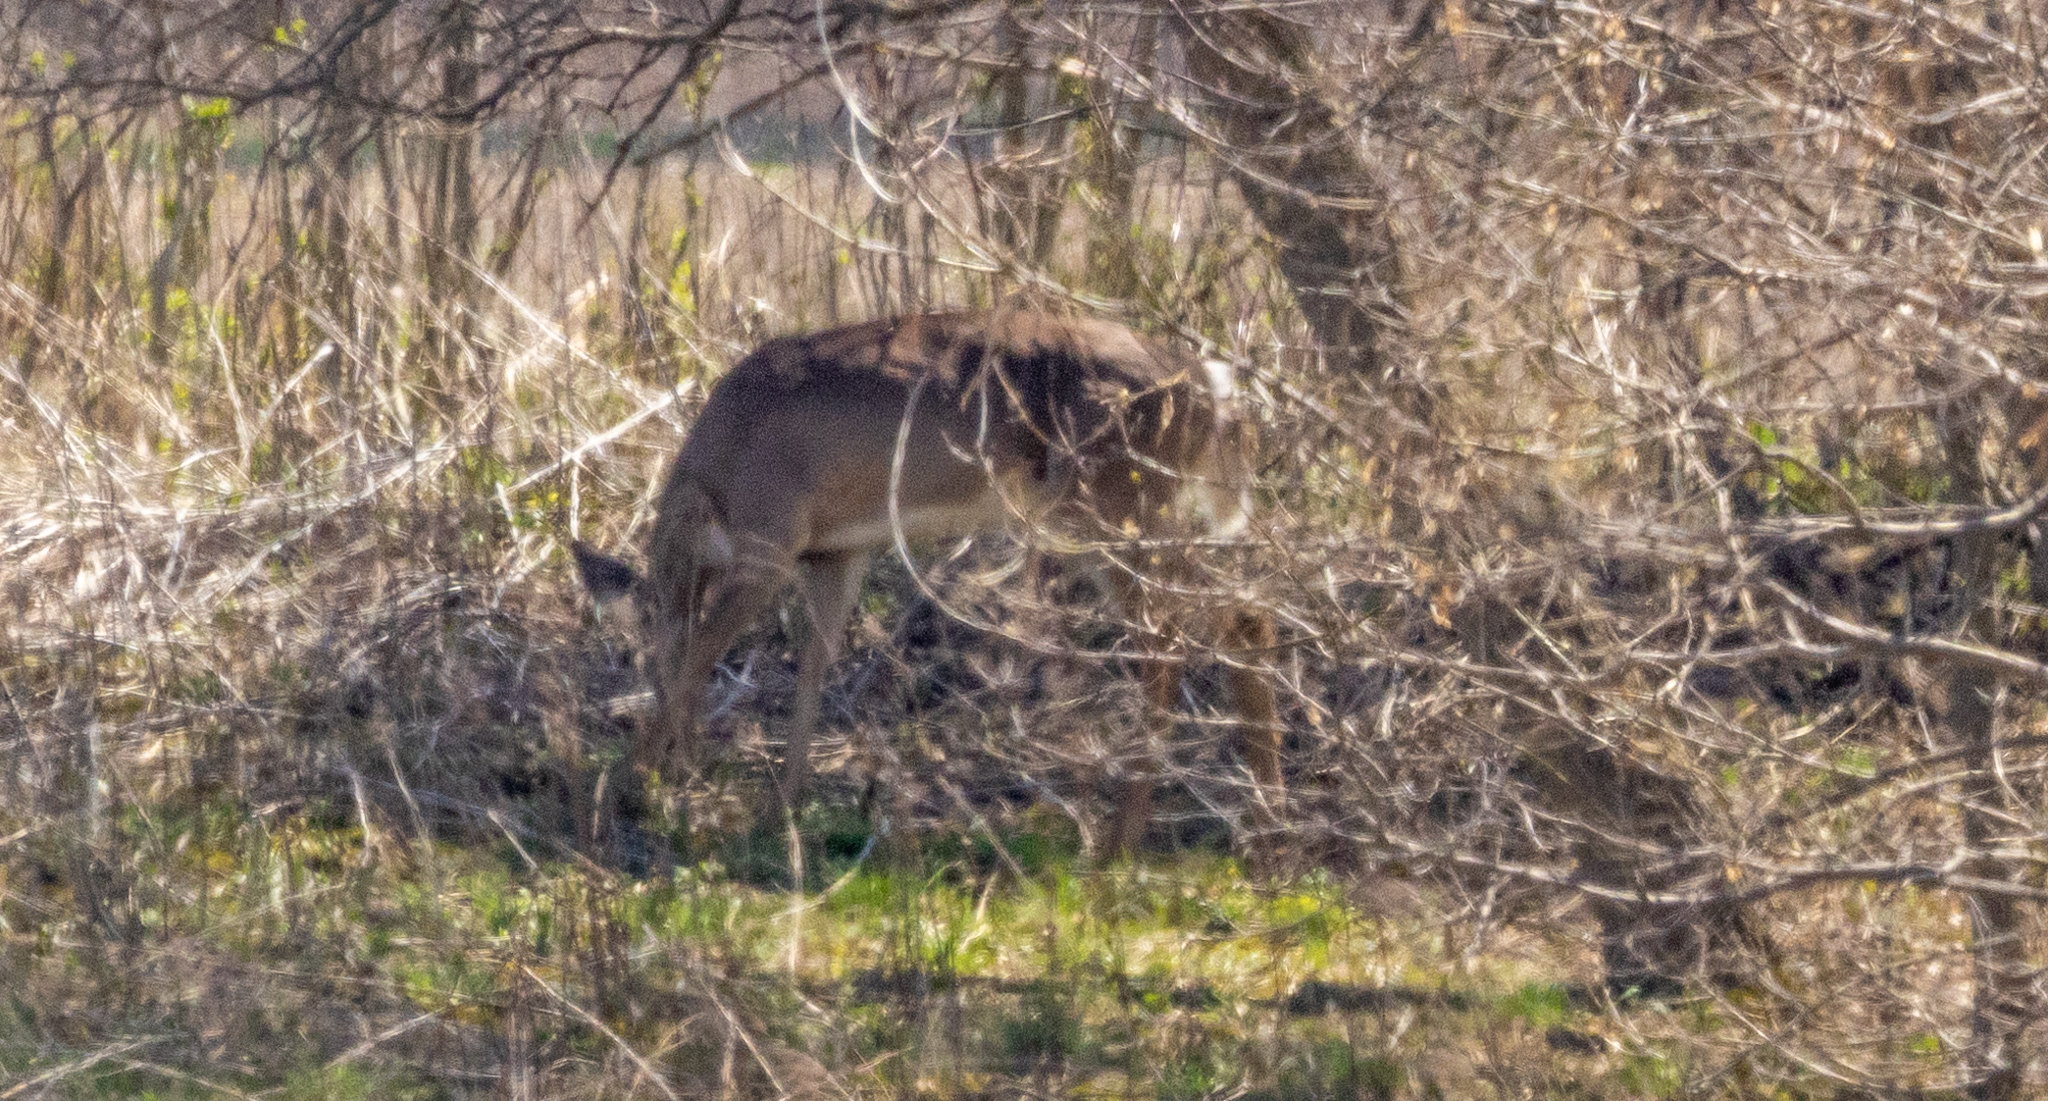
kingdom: Animalia
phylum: Chordata
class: Mammalia
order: Artiodactyla
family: Cervidae
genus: Odocoileus
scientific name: Odocoileus virginianus
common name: White-tailed deer
